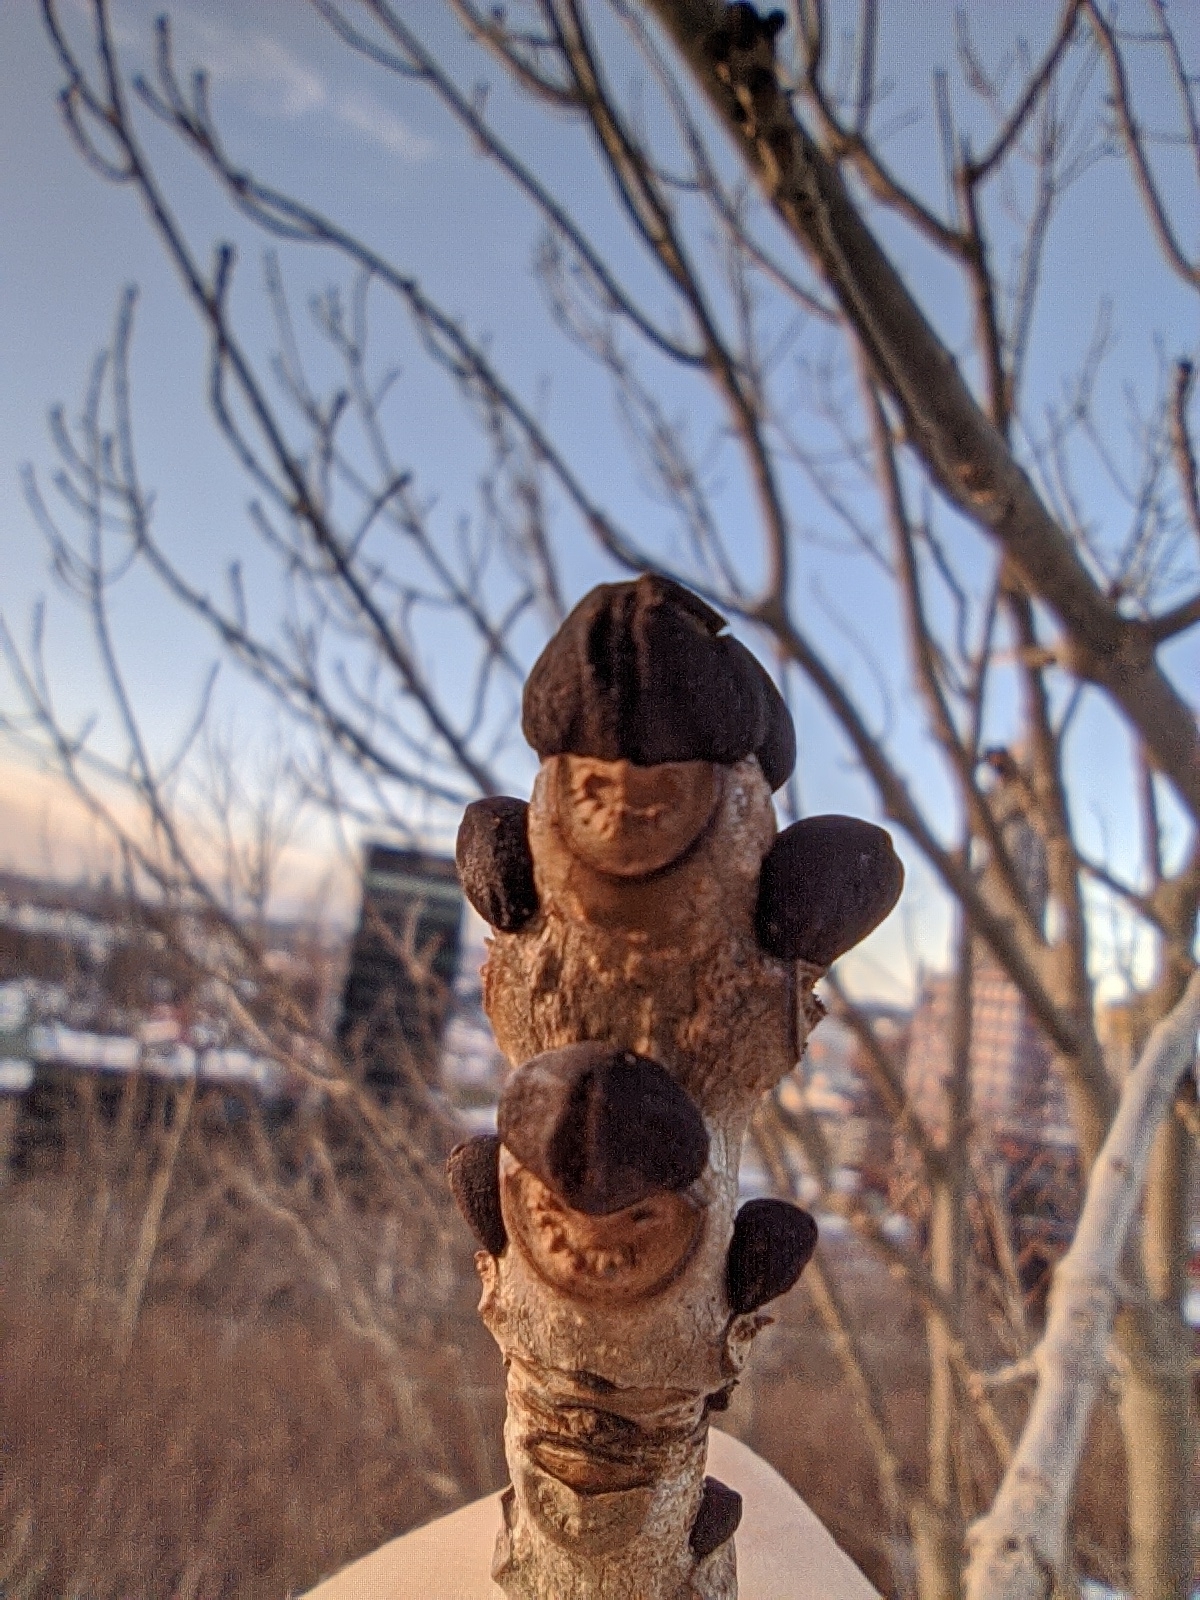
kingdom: Plantae
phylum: Tracheophyta
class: Magnoliopsida
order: Lamiales
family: Oleaceae
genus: Fraxinus
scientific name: Fraxinus excelsior
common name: European ash
